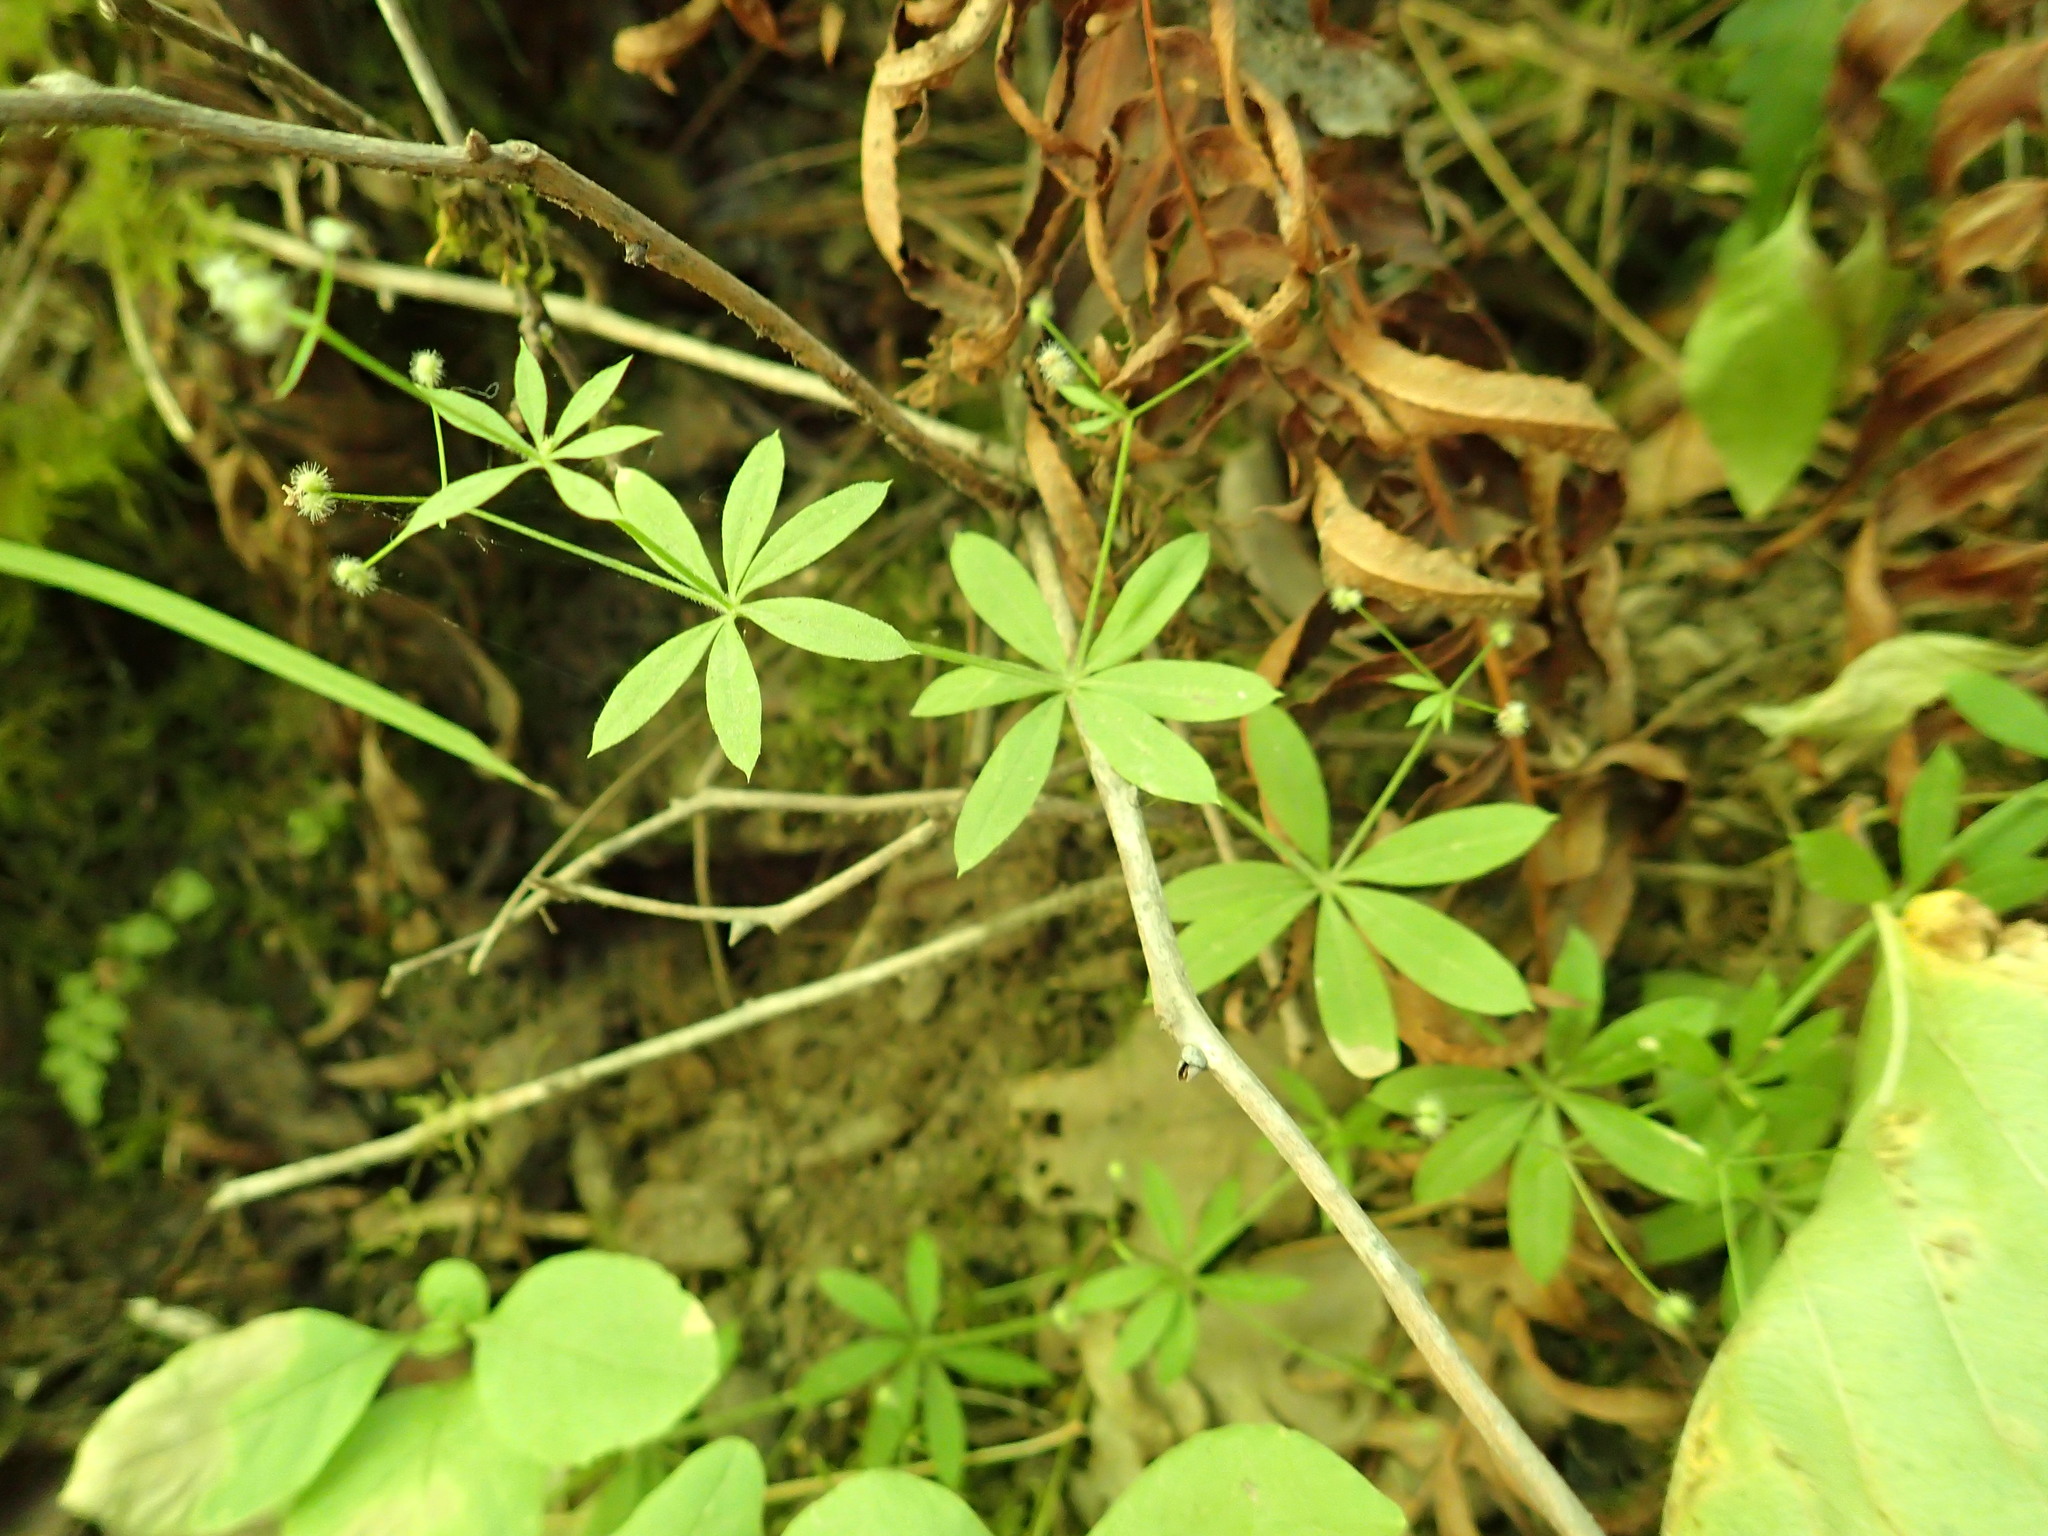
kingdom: Plantae
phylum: Tracheophyta
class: Magnoliopsida
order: Gentianales
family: Rubiaceae
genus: Galium
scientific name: Galium triflorum
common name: Fragrant bedstraw
